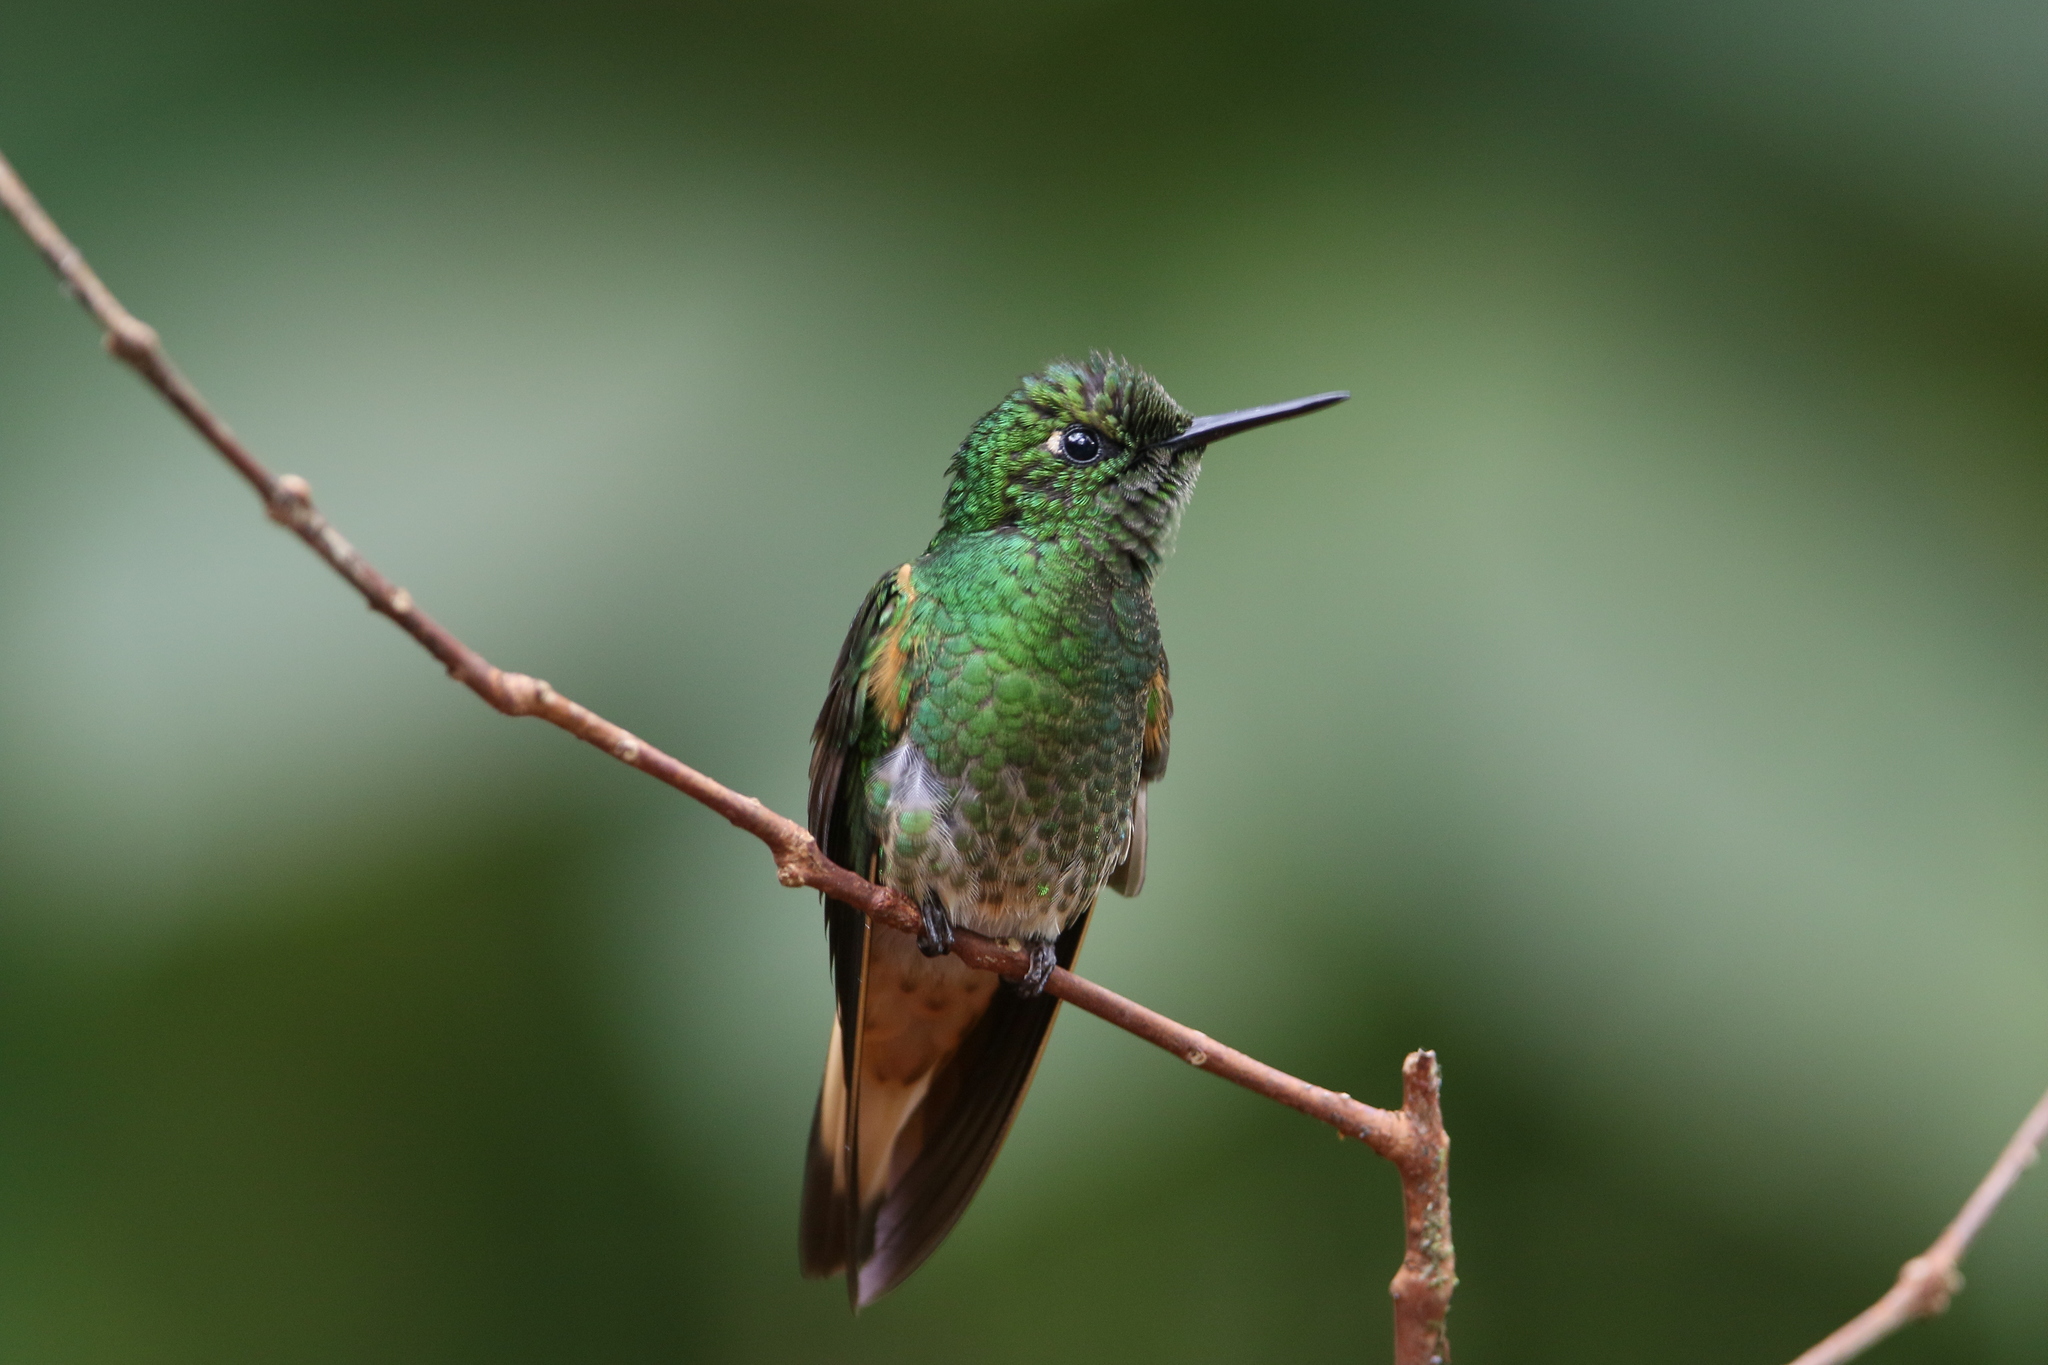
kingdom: Animalia
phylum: Chordata
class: Aves
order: Apodiformes
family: Trochilidae
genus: Boissonneaua
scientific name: Boissonneaua flavescens
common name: Buff-tailed coronet
